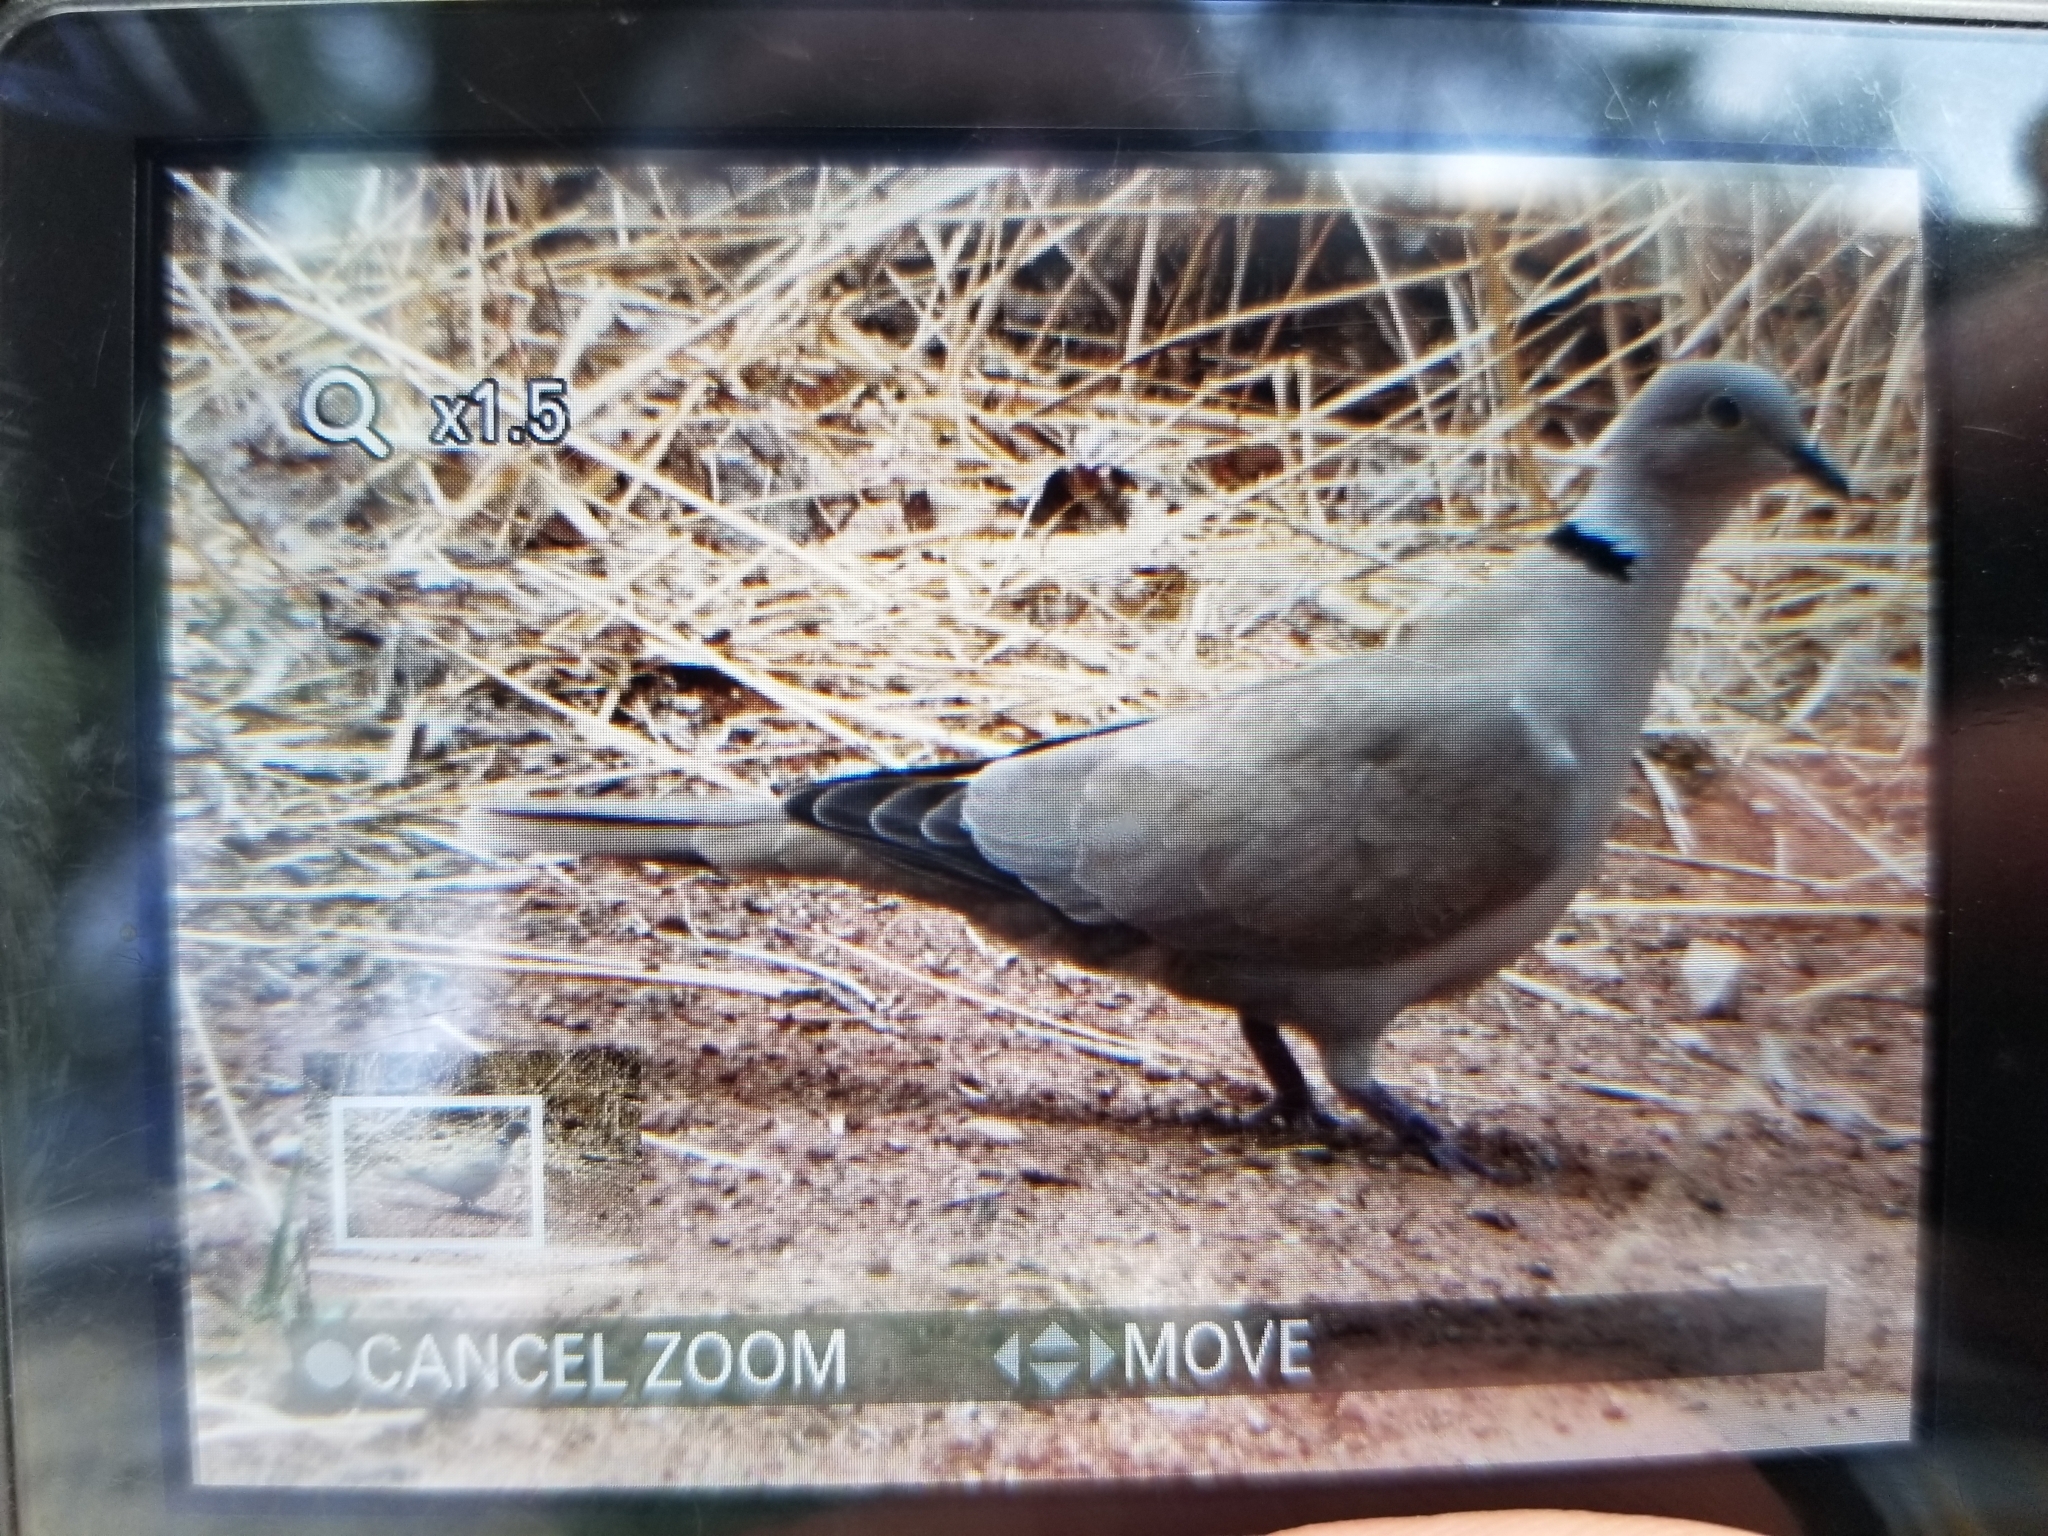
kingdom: Animalia
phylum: Chordata
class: Aves
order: Columbiformes
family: Columbidae
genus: Streptopelia
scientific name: Streptopelia decaocto
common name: Eurasian collared dove
